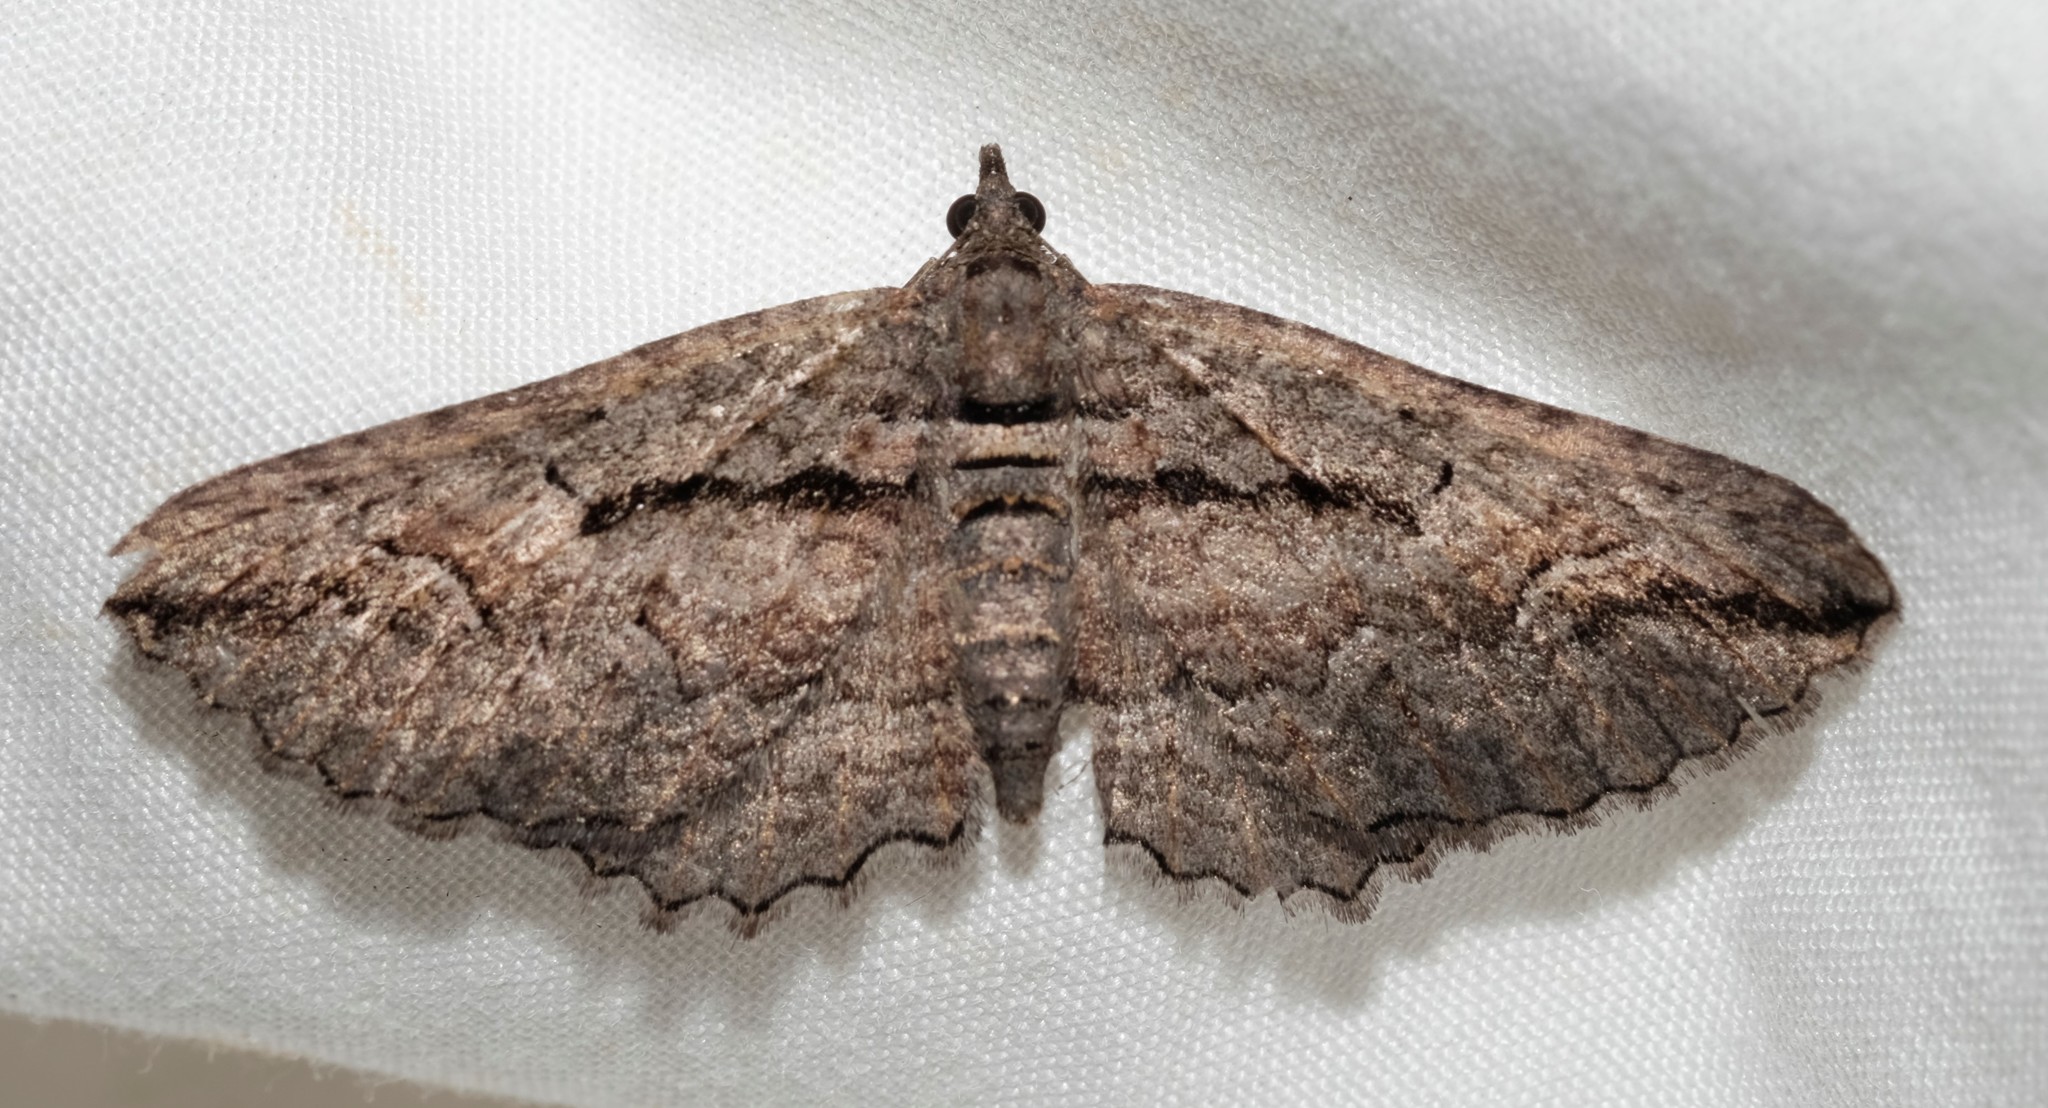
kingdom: Animalia
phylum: Arthropoda
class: Insecta
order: Lepidoptera
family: Geometridae
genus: Chrysolarentia
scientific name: Chrysolarentia plagiocausta
